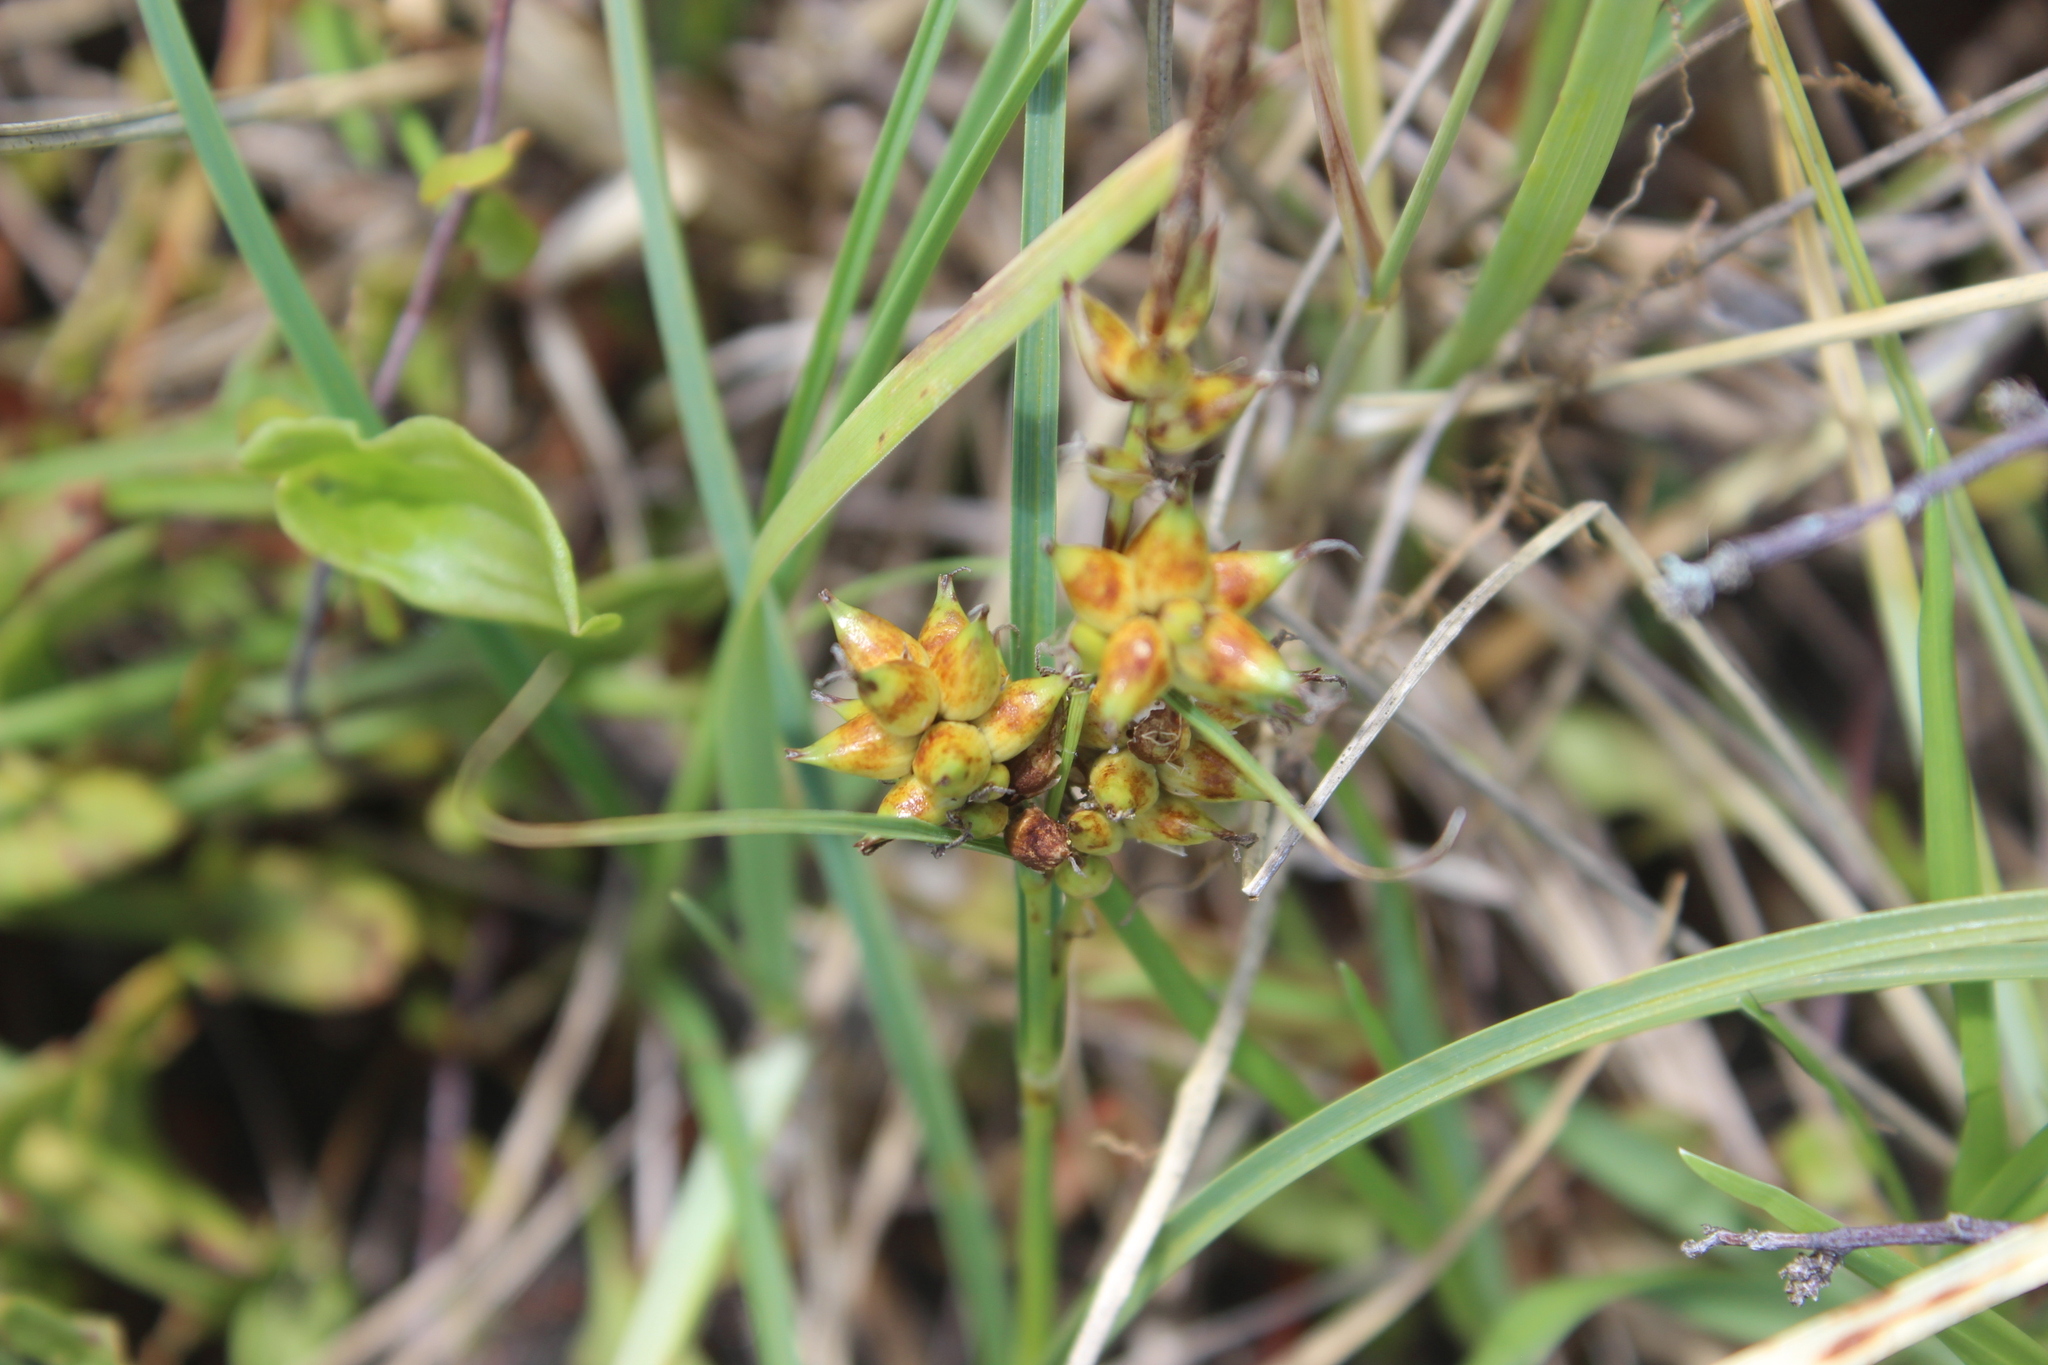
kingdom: Plantae
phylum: Tracheophyta
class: Liliopsida
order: Poales
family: Cyperaceae
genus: Carex
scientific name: Carex pumila
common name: Dwarf sedge
